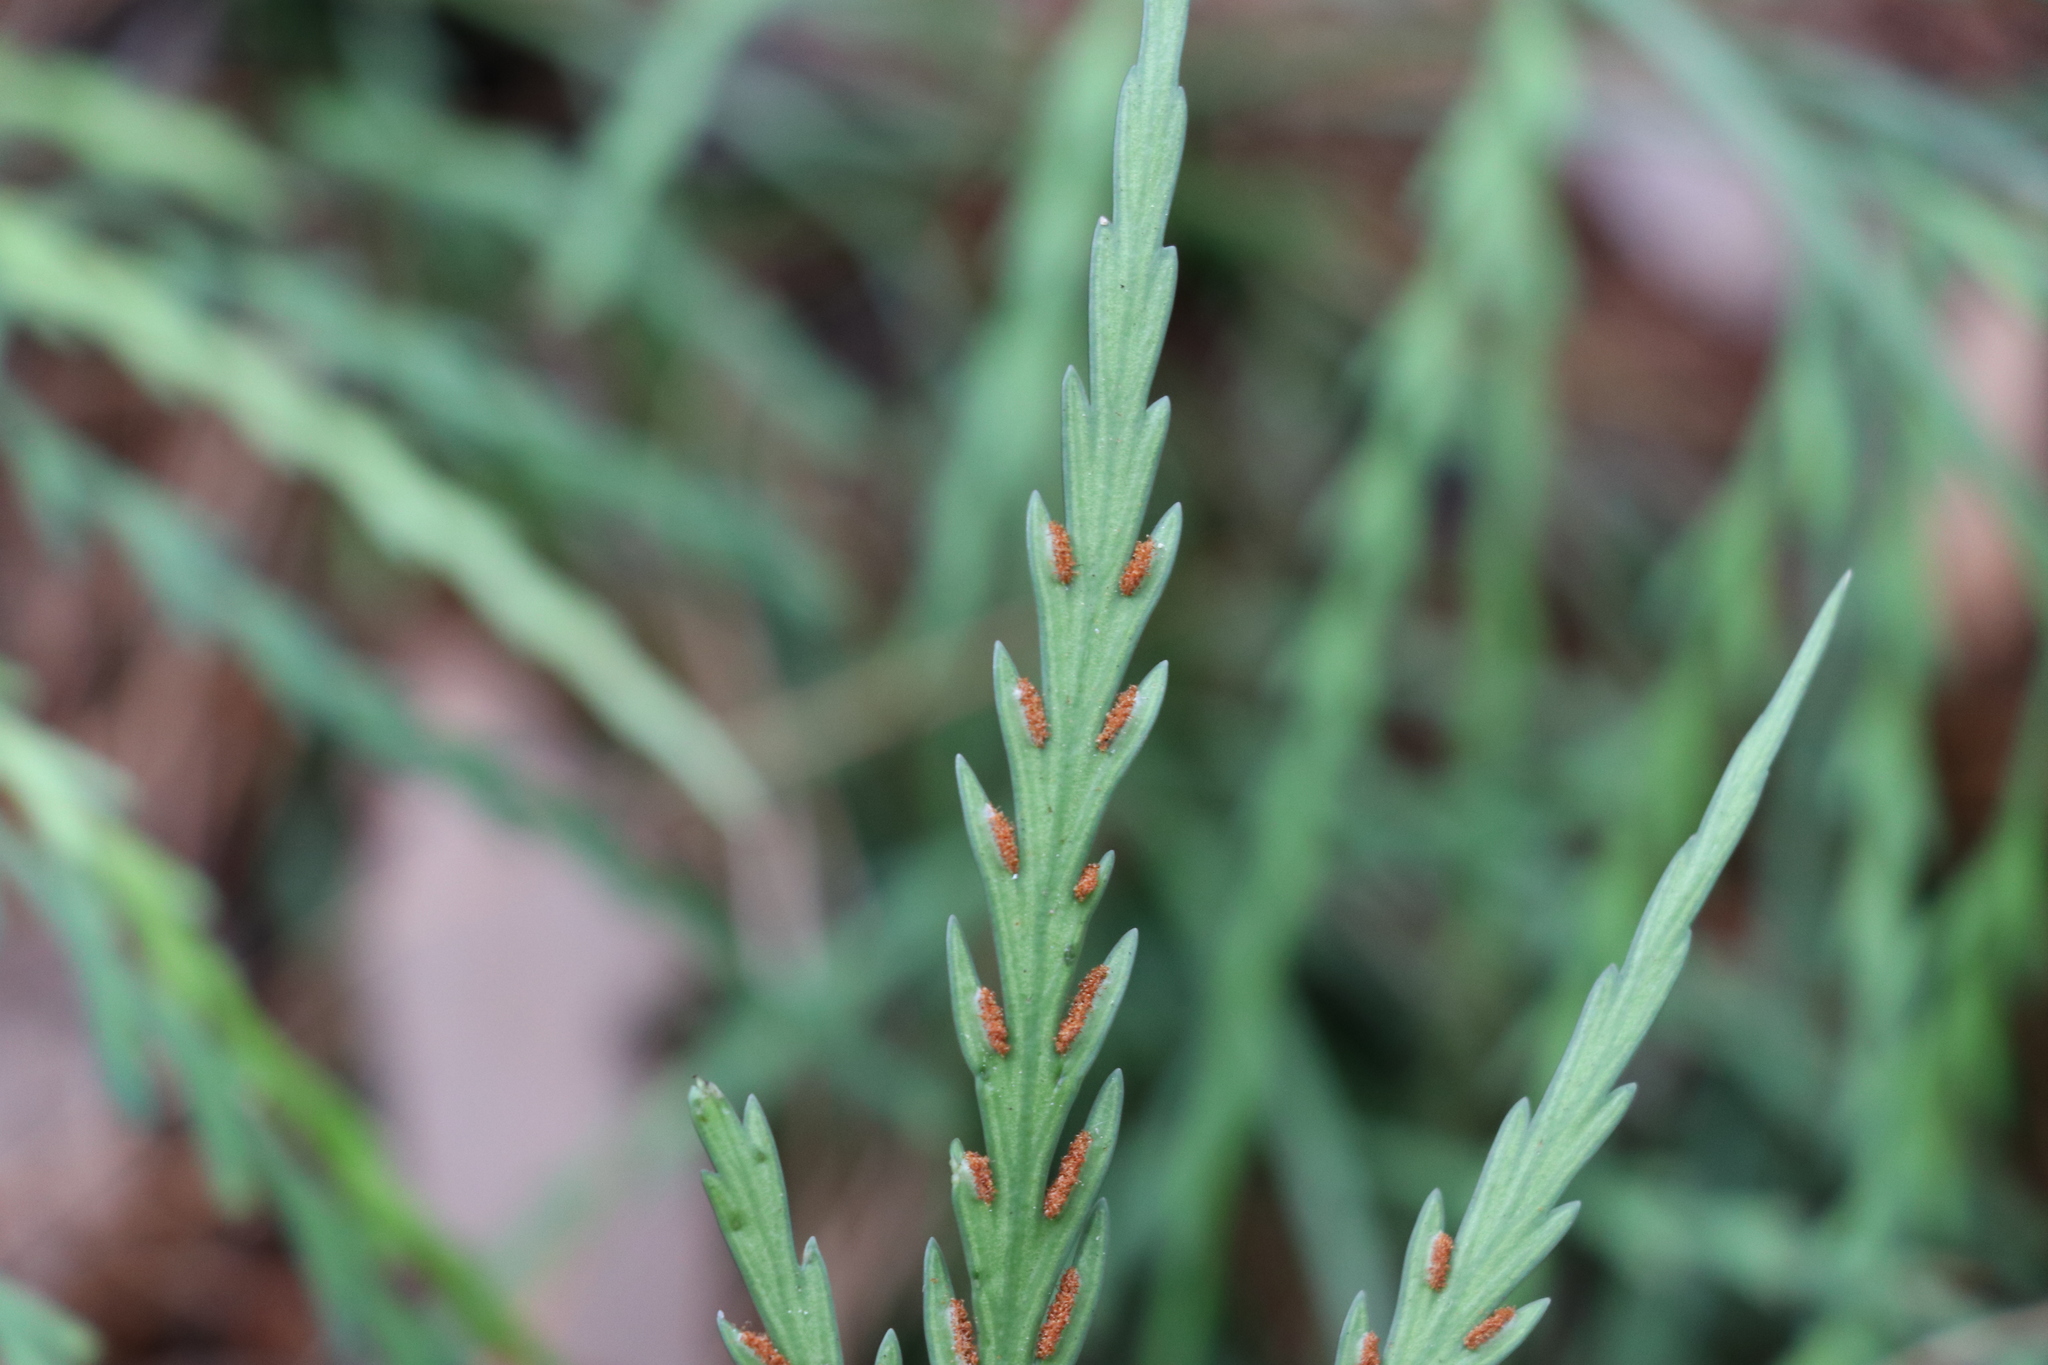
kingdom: Plantae
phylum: Tracheophyta
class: Polypodiopsida
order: Polypodiales
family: Aspleniaceae
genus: Asplenium
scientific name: Asplenium flaccidum
